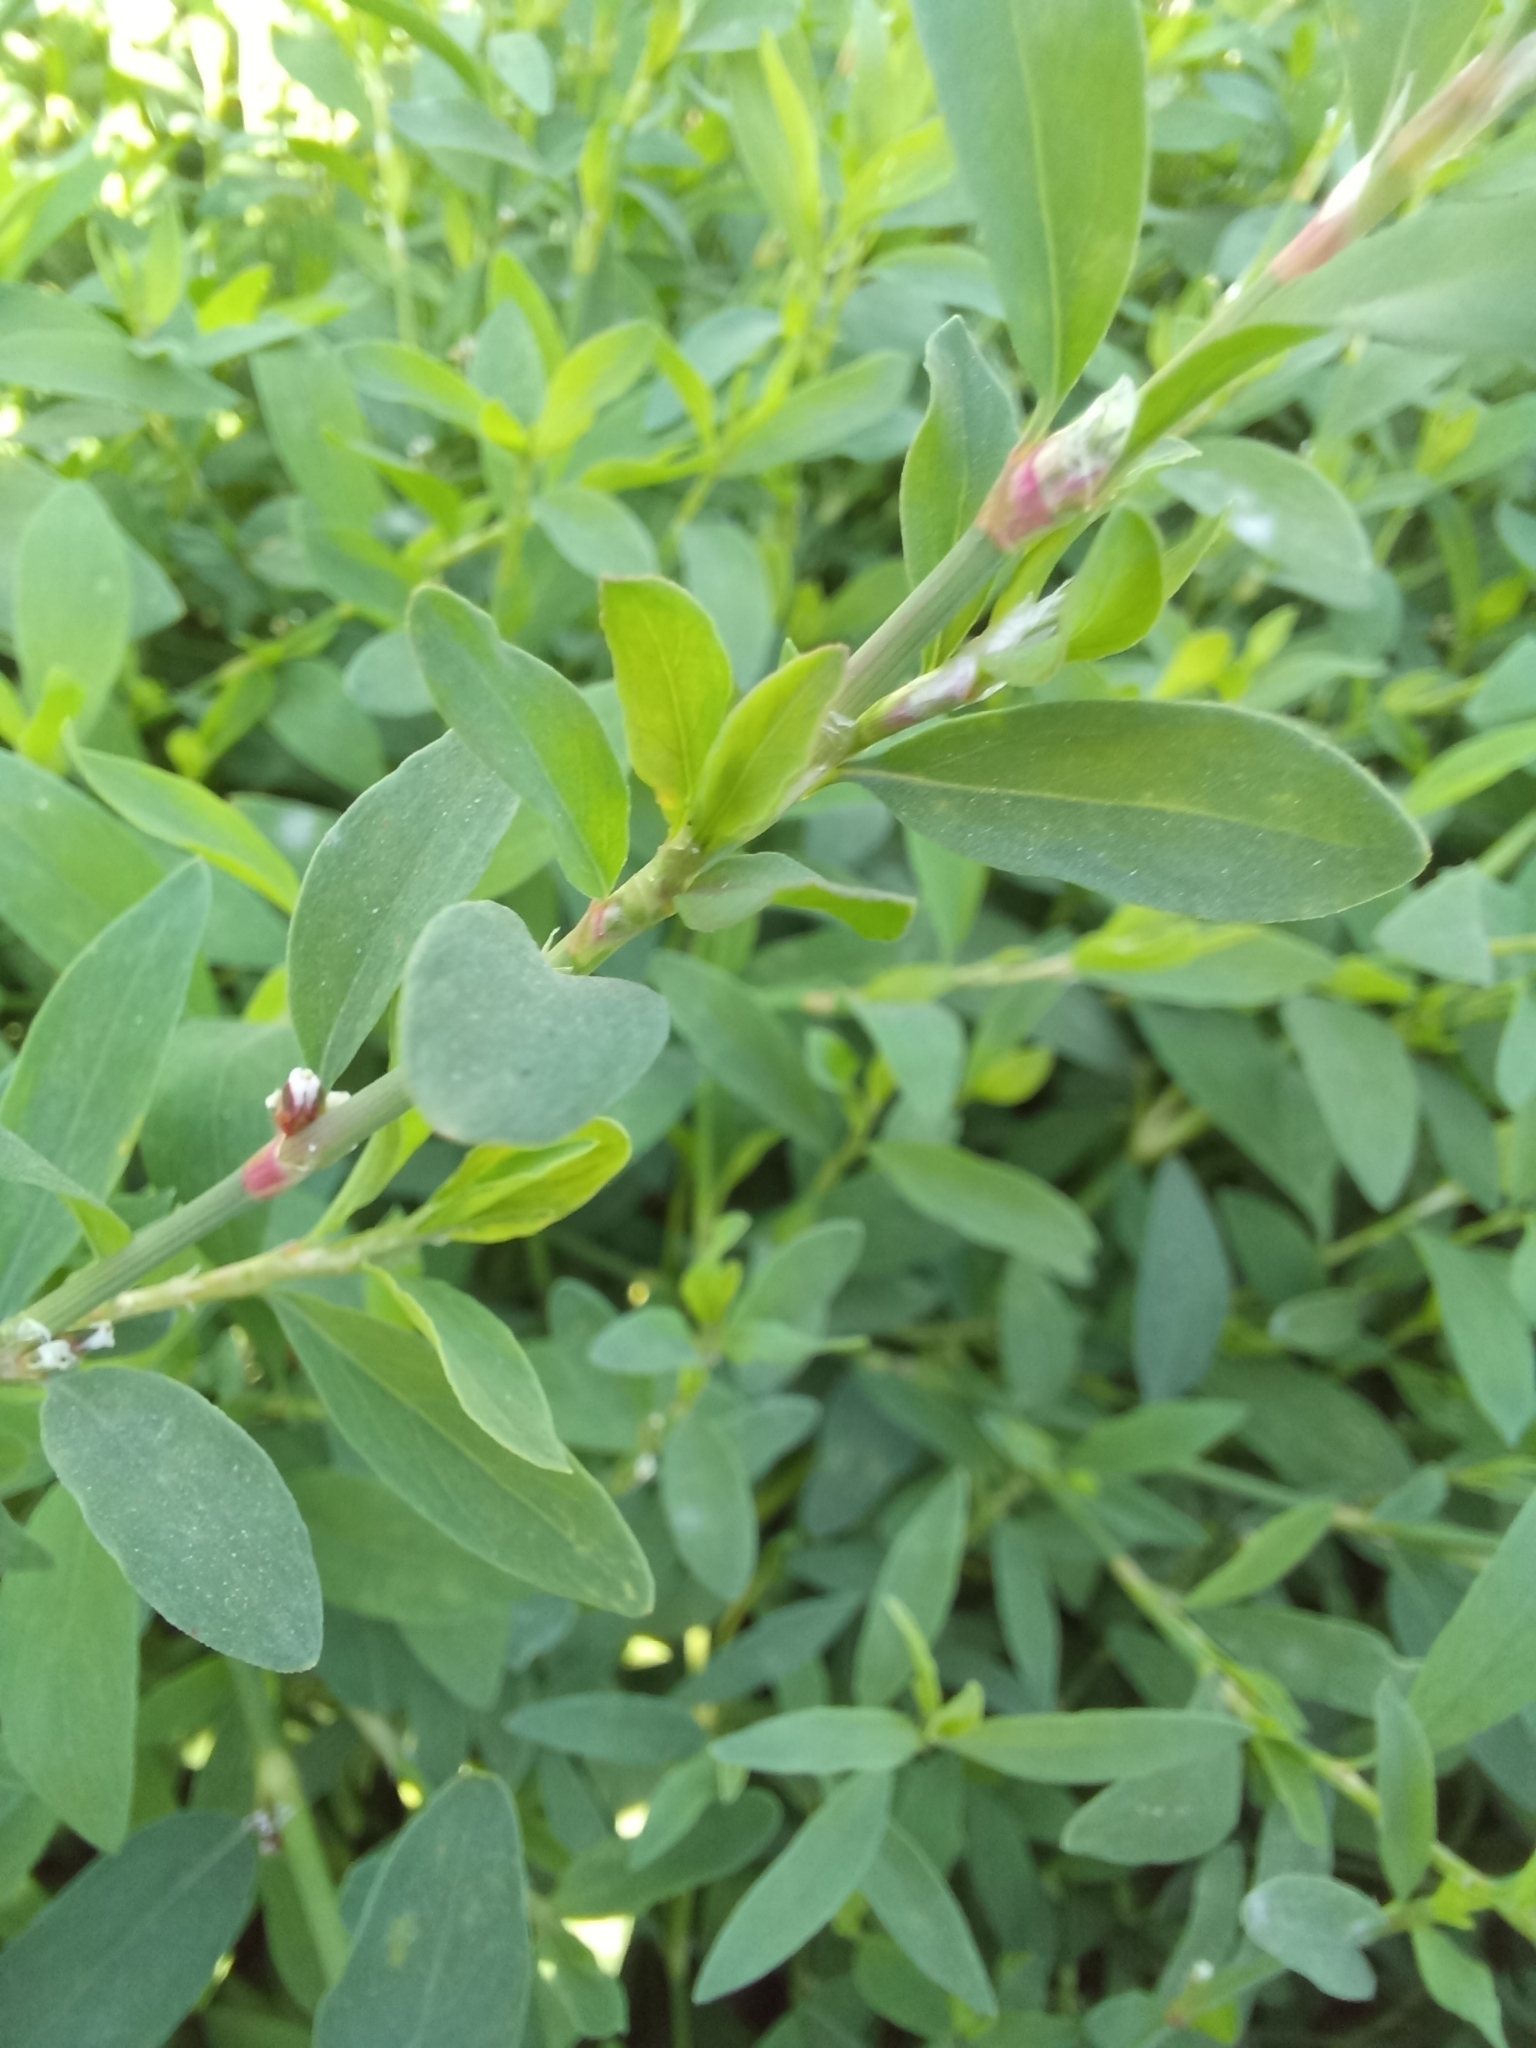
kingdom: Plantae
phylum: Tracheophyta
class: Magnoliopsida
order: Caryophyllales
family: Polygonaceae
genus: Polygonum
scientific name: Polygonum
